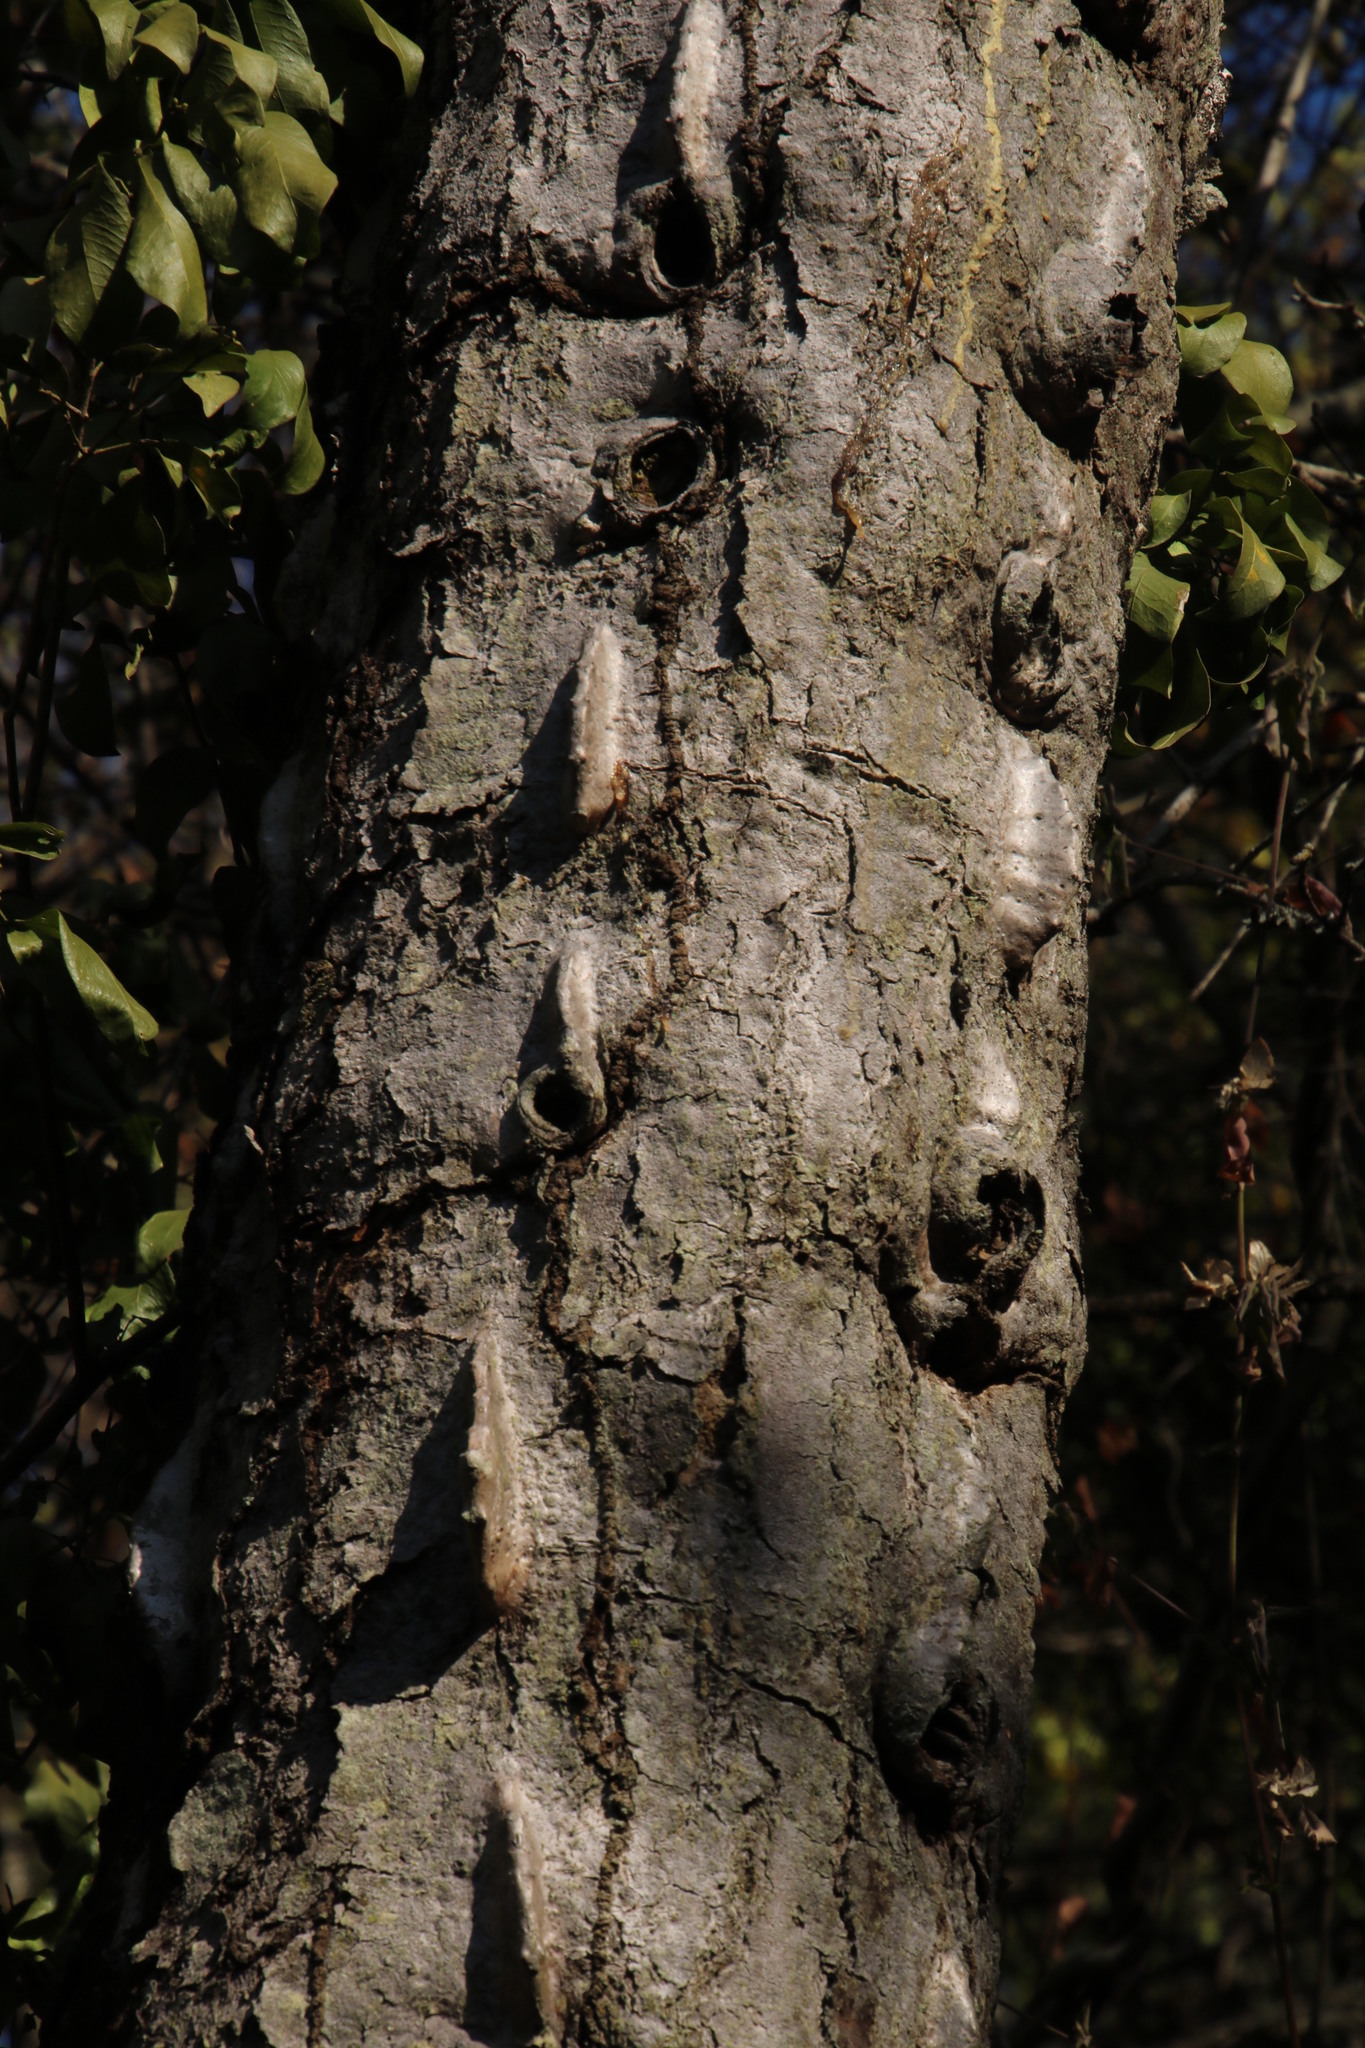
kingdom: Plantae
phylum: Tracheophyta
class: Magnoliopsida
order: Malpighiales
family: Euphorbiaceae
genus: Euphorbia
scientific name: Euphorbia cooperi
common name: Candelabra tree
